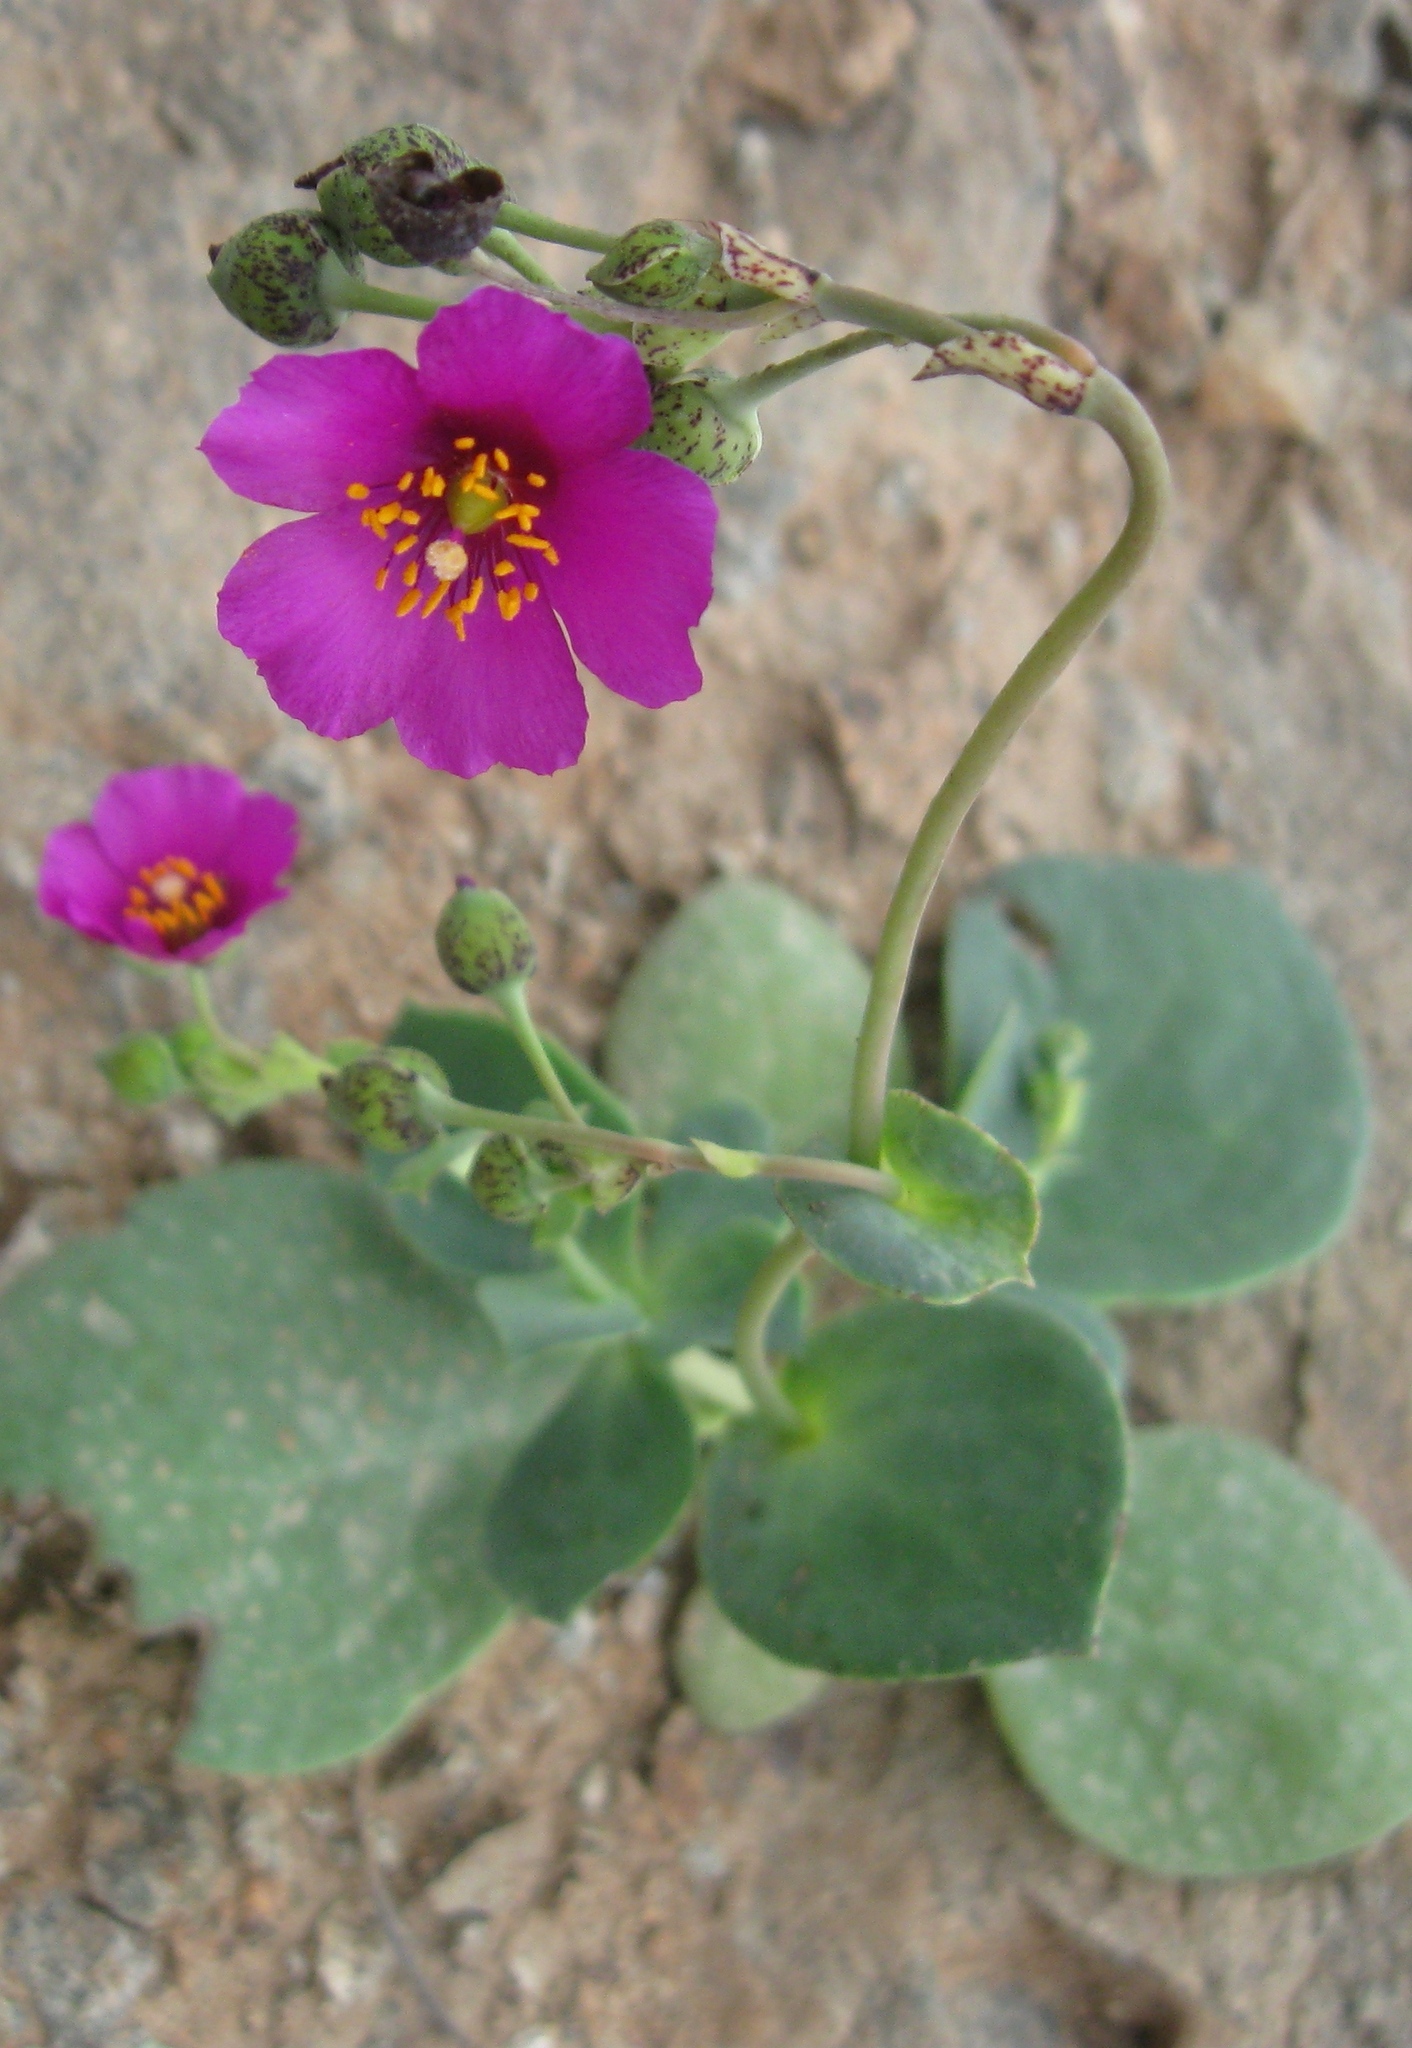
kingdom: Plantae
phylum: Tracheophyta
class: Magnoliopsida
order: Caryophyllales
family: Montiaceae
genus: Cistanthe
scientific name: Cistanthe paniculata
